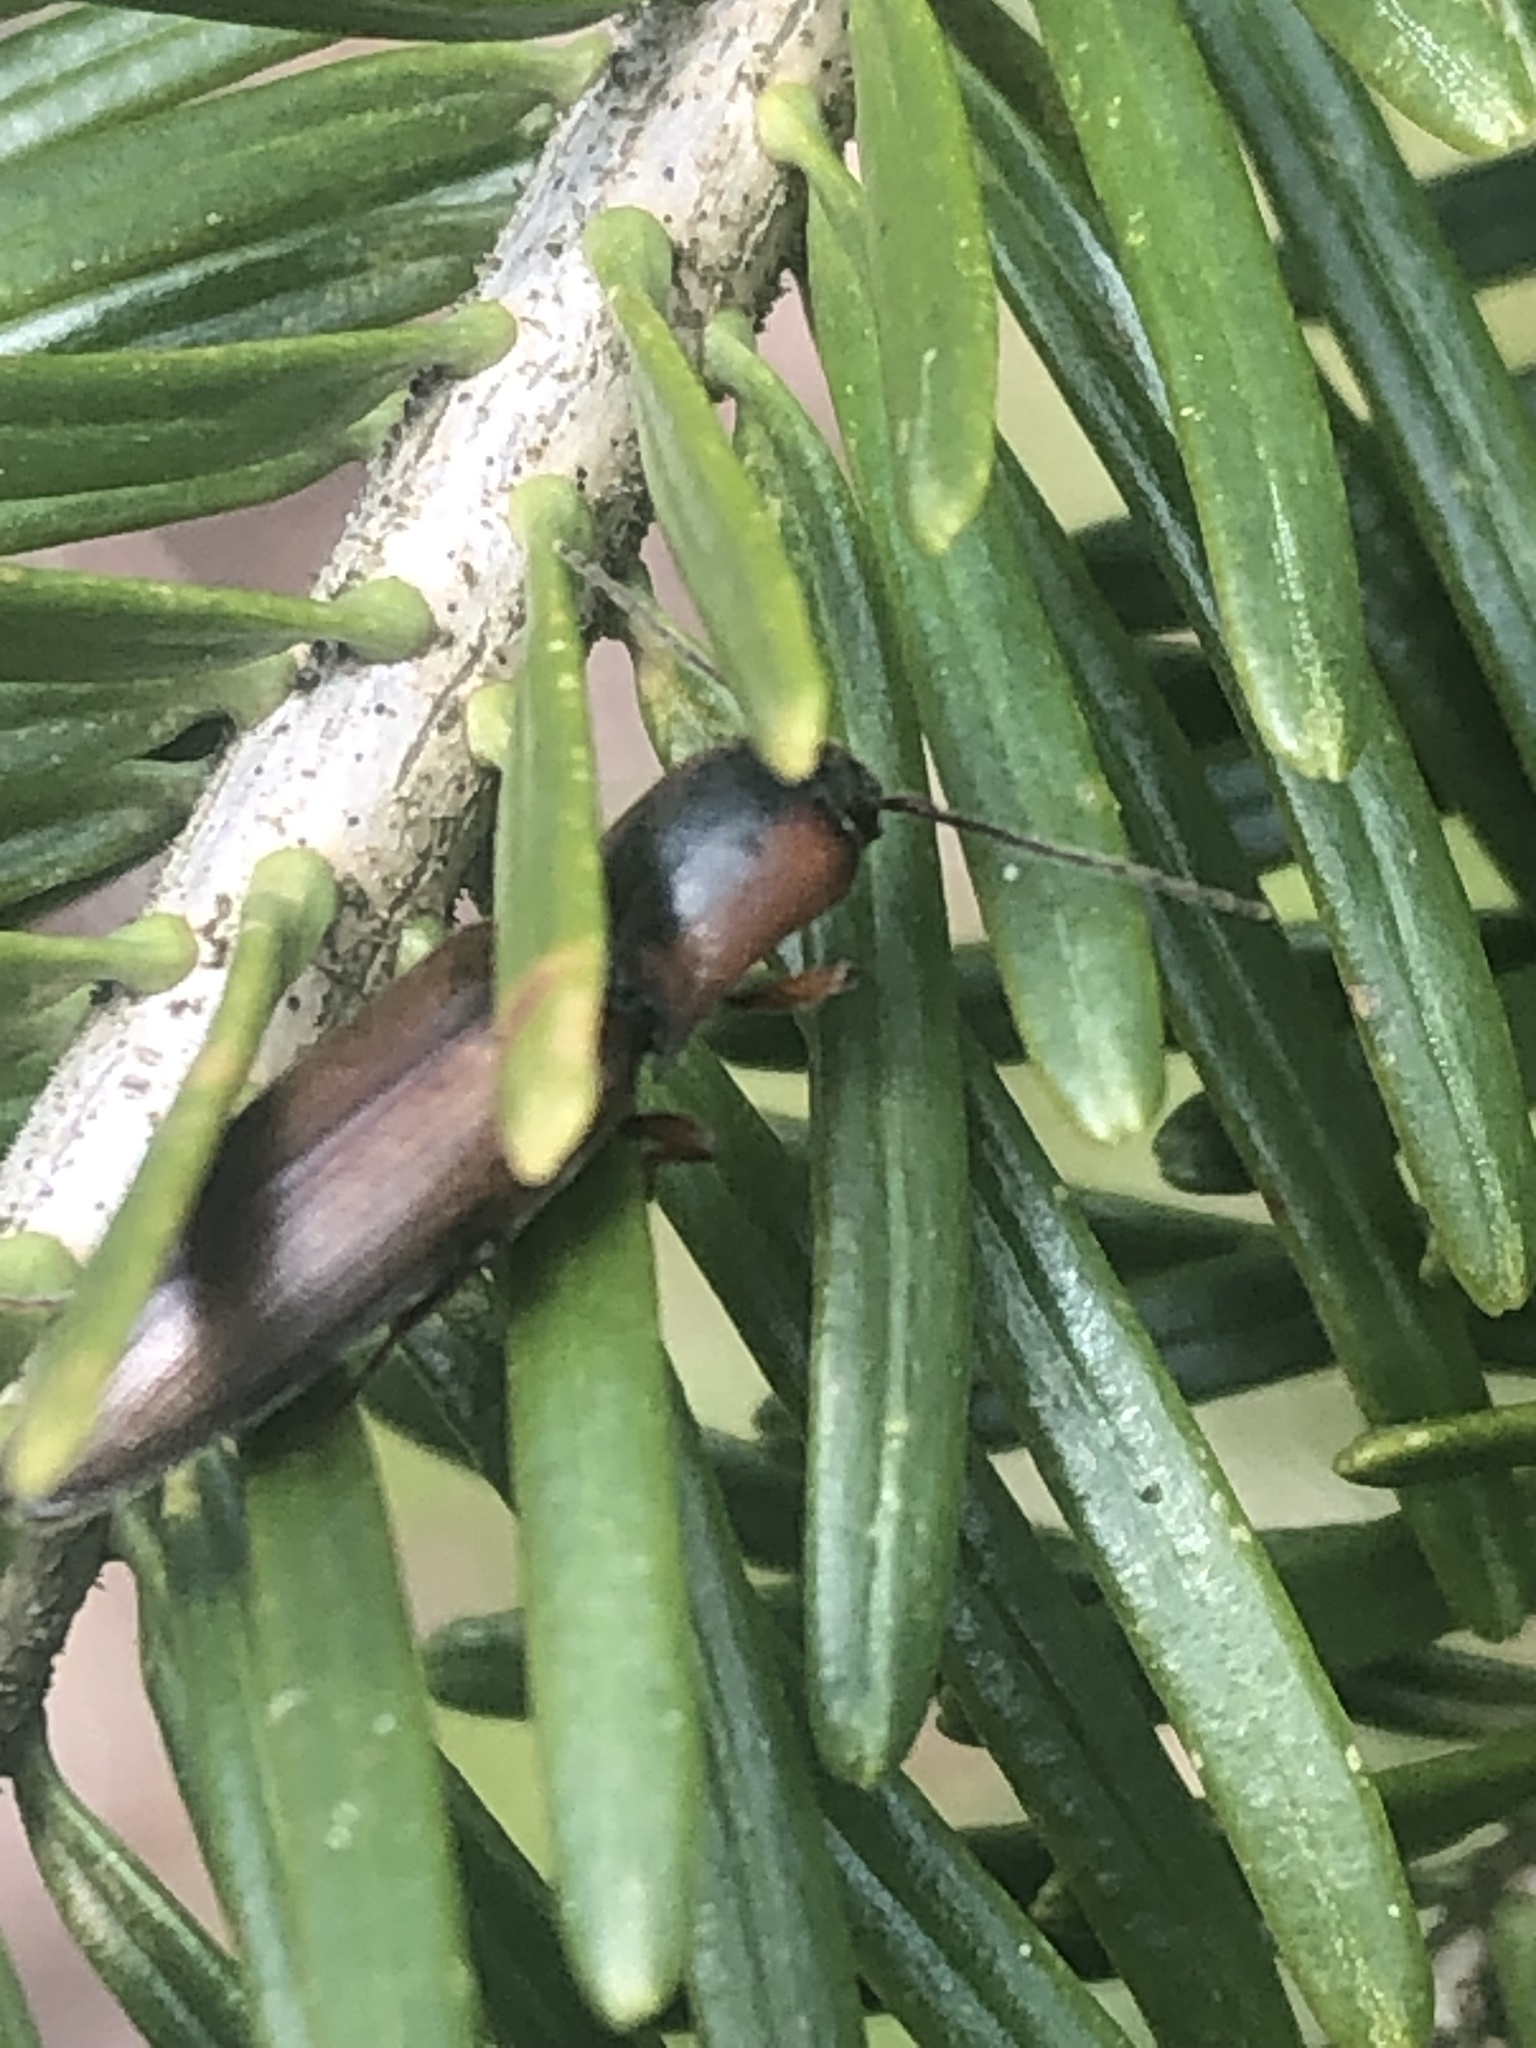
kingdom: Animalia
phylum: Arthropoda
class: Insecta
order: Coleoptera
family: Elateridae
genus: Agriotes
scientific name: Agriotes collaris
